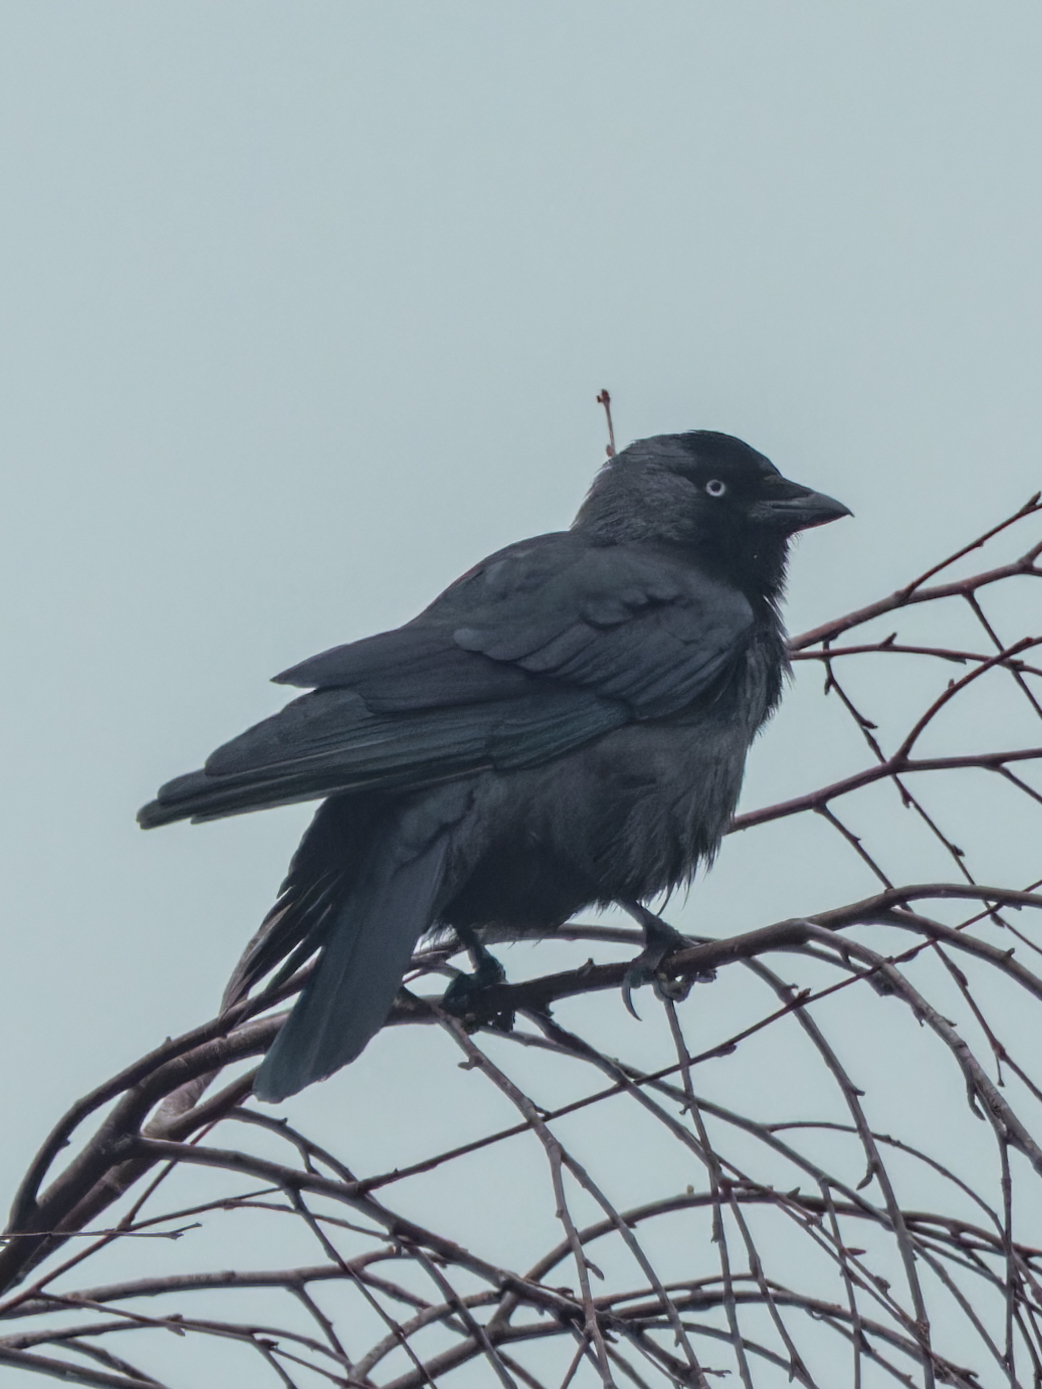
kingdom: Animalia
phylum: Chordata
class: Aves
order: Passeriformes
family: Corvidae
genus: Coloeus
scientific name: Coloeus monedula
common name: Western jackdaw
